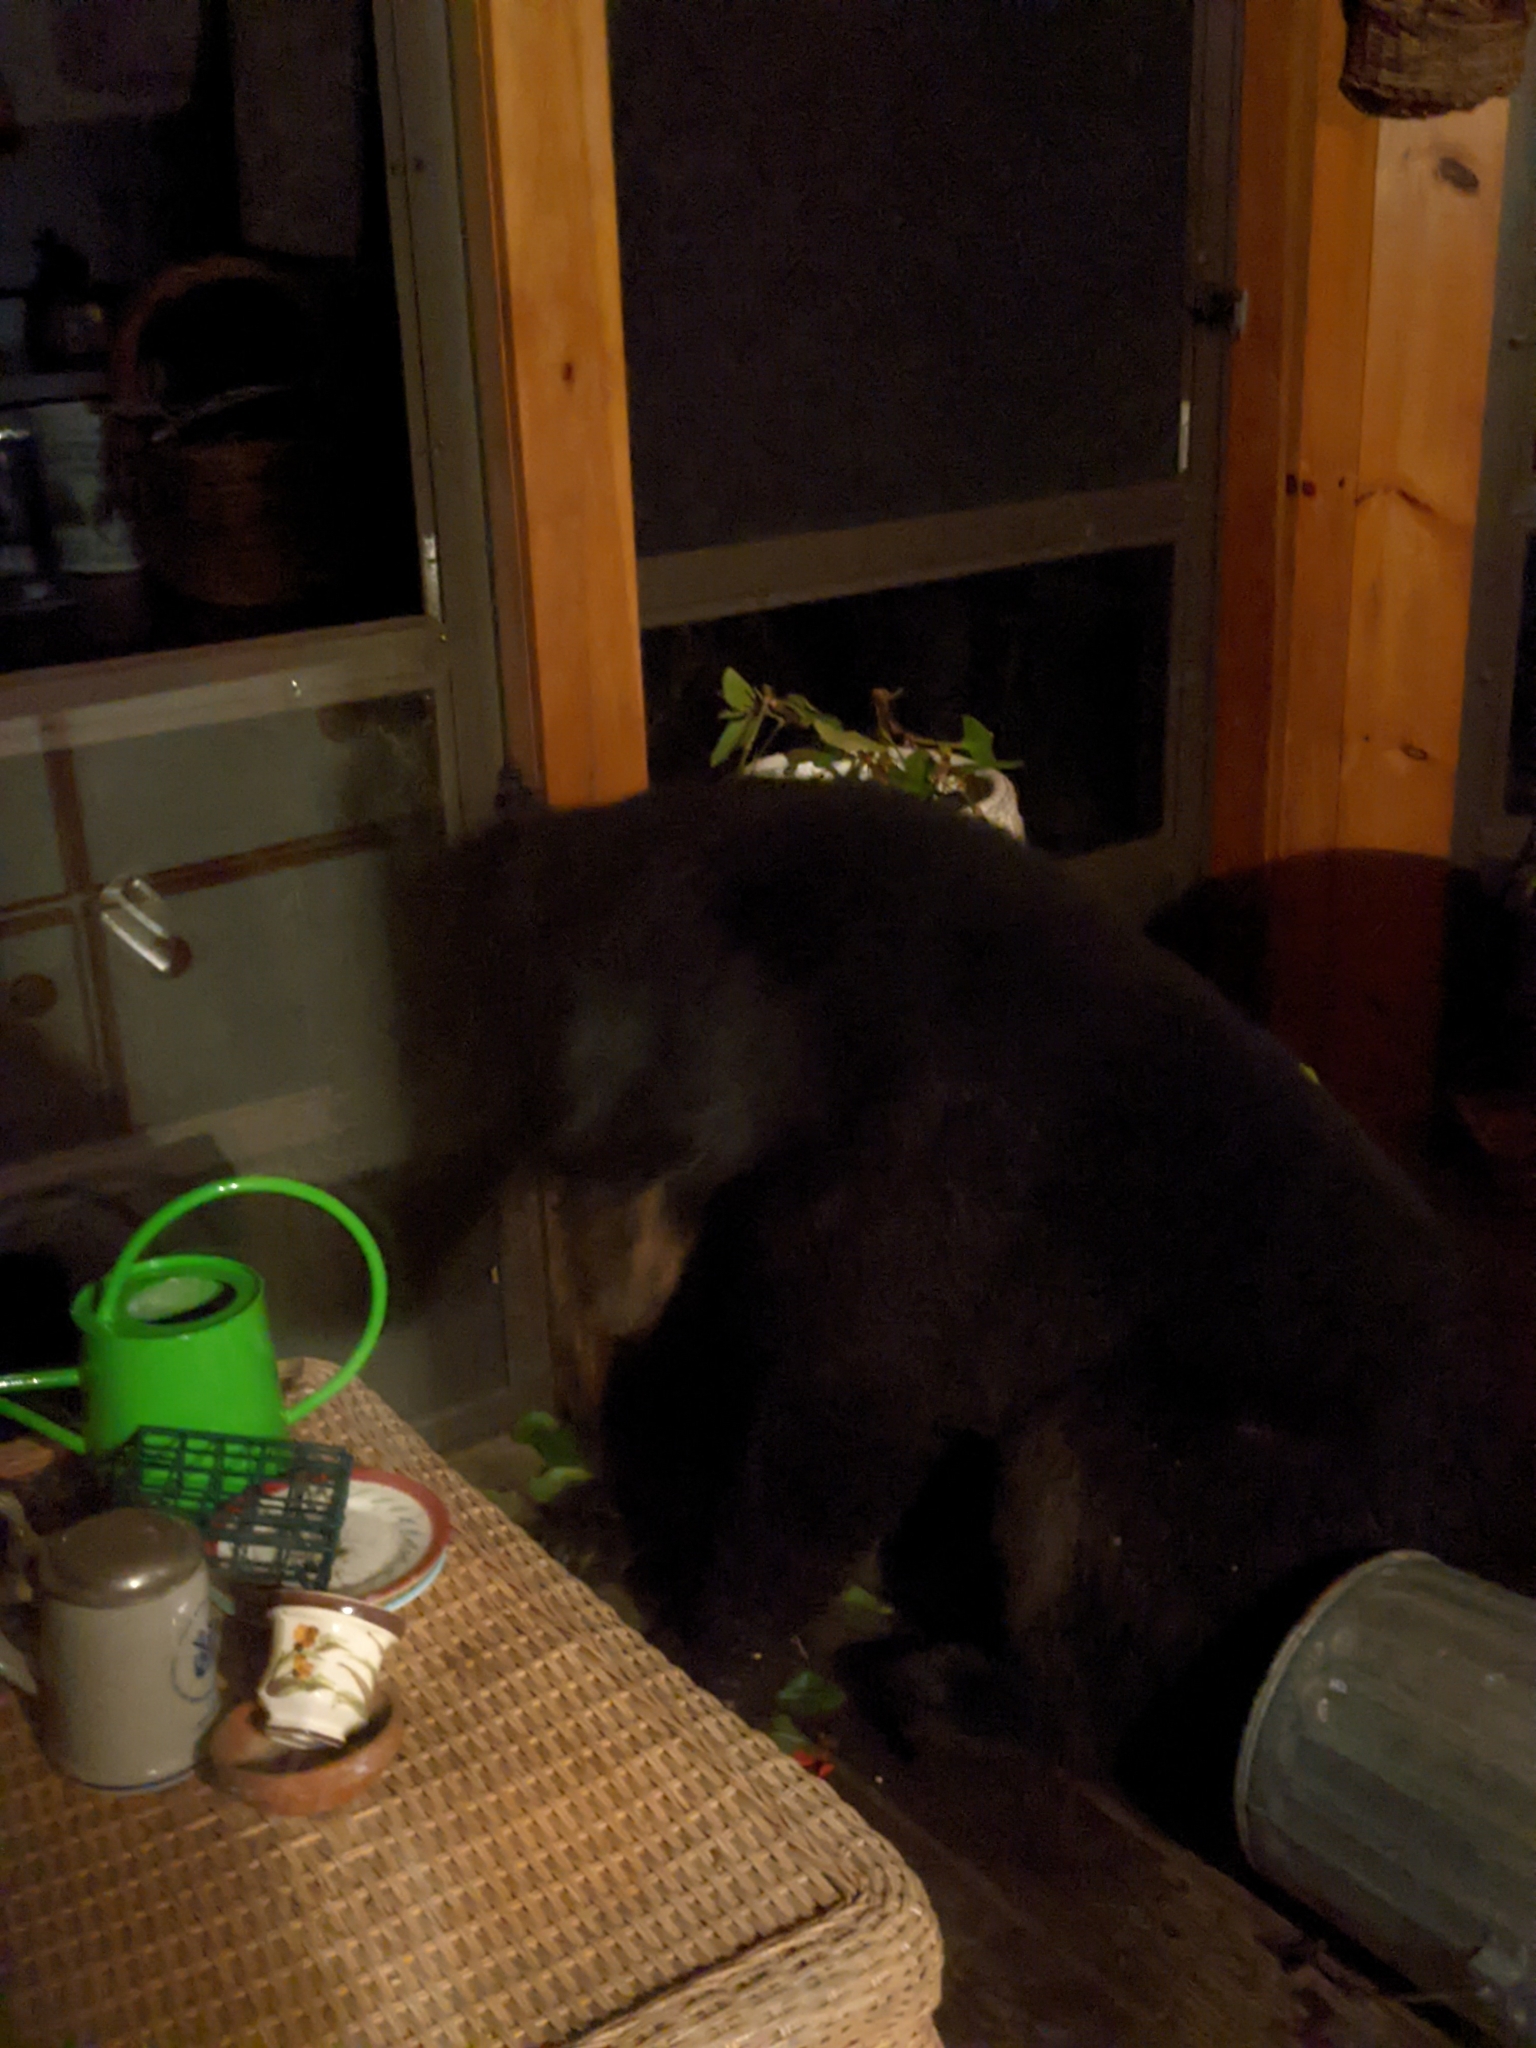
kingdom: Animalia
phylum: Chordata
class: Mammalia
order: Carnivora
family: Ursidae
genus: Ursus
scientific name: Ursus americanus
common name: American black bear
